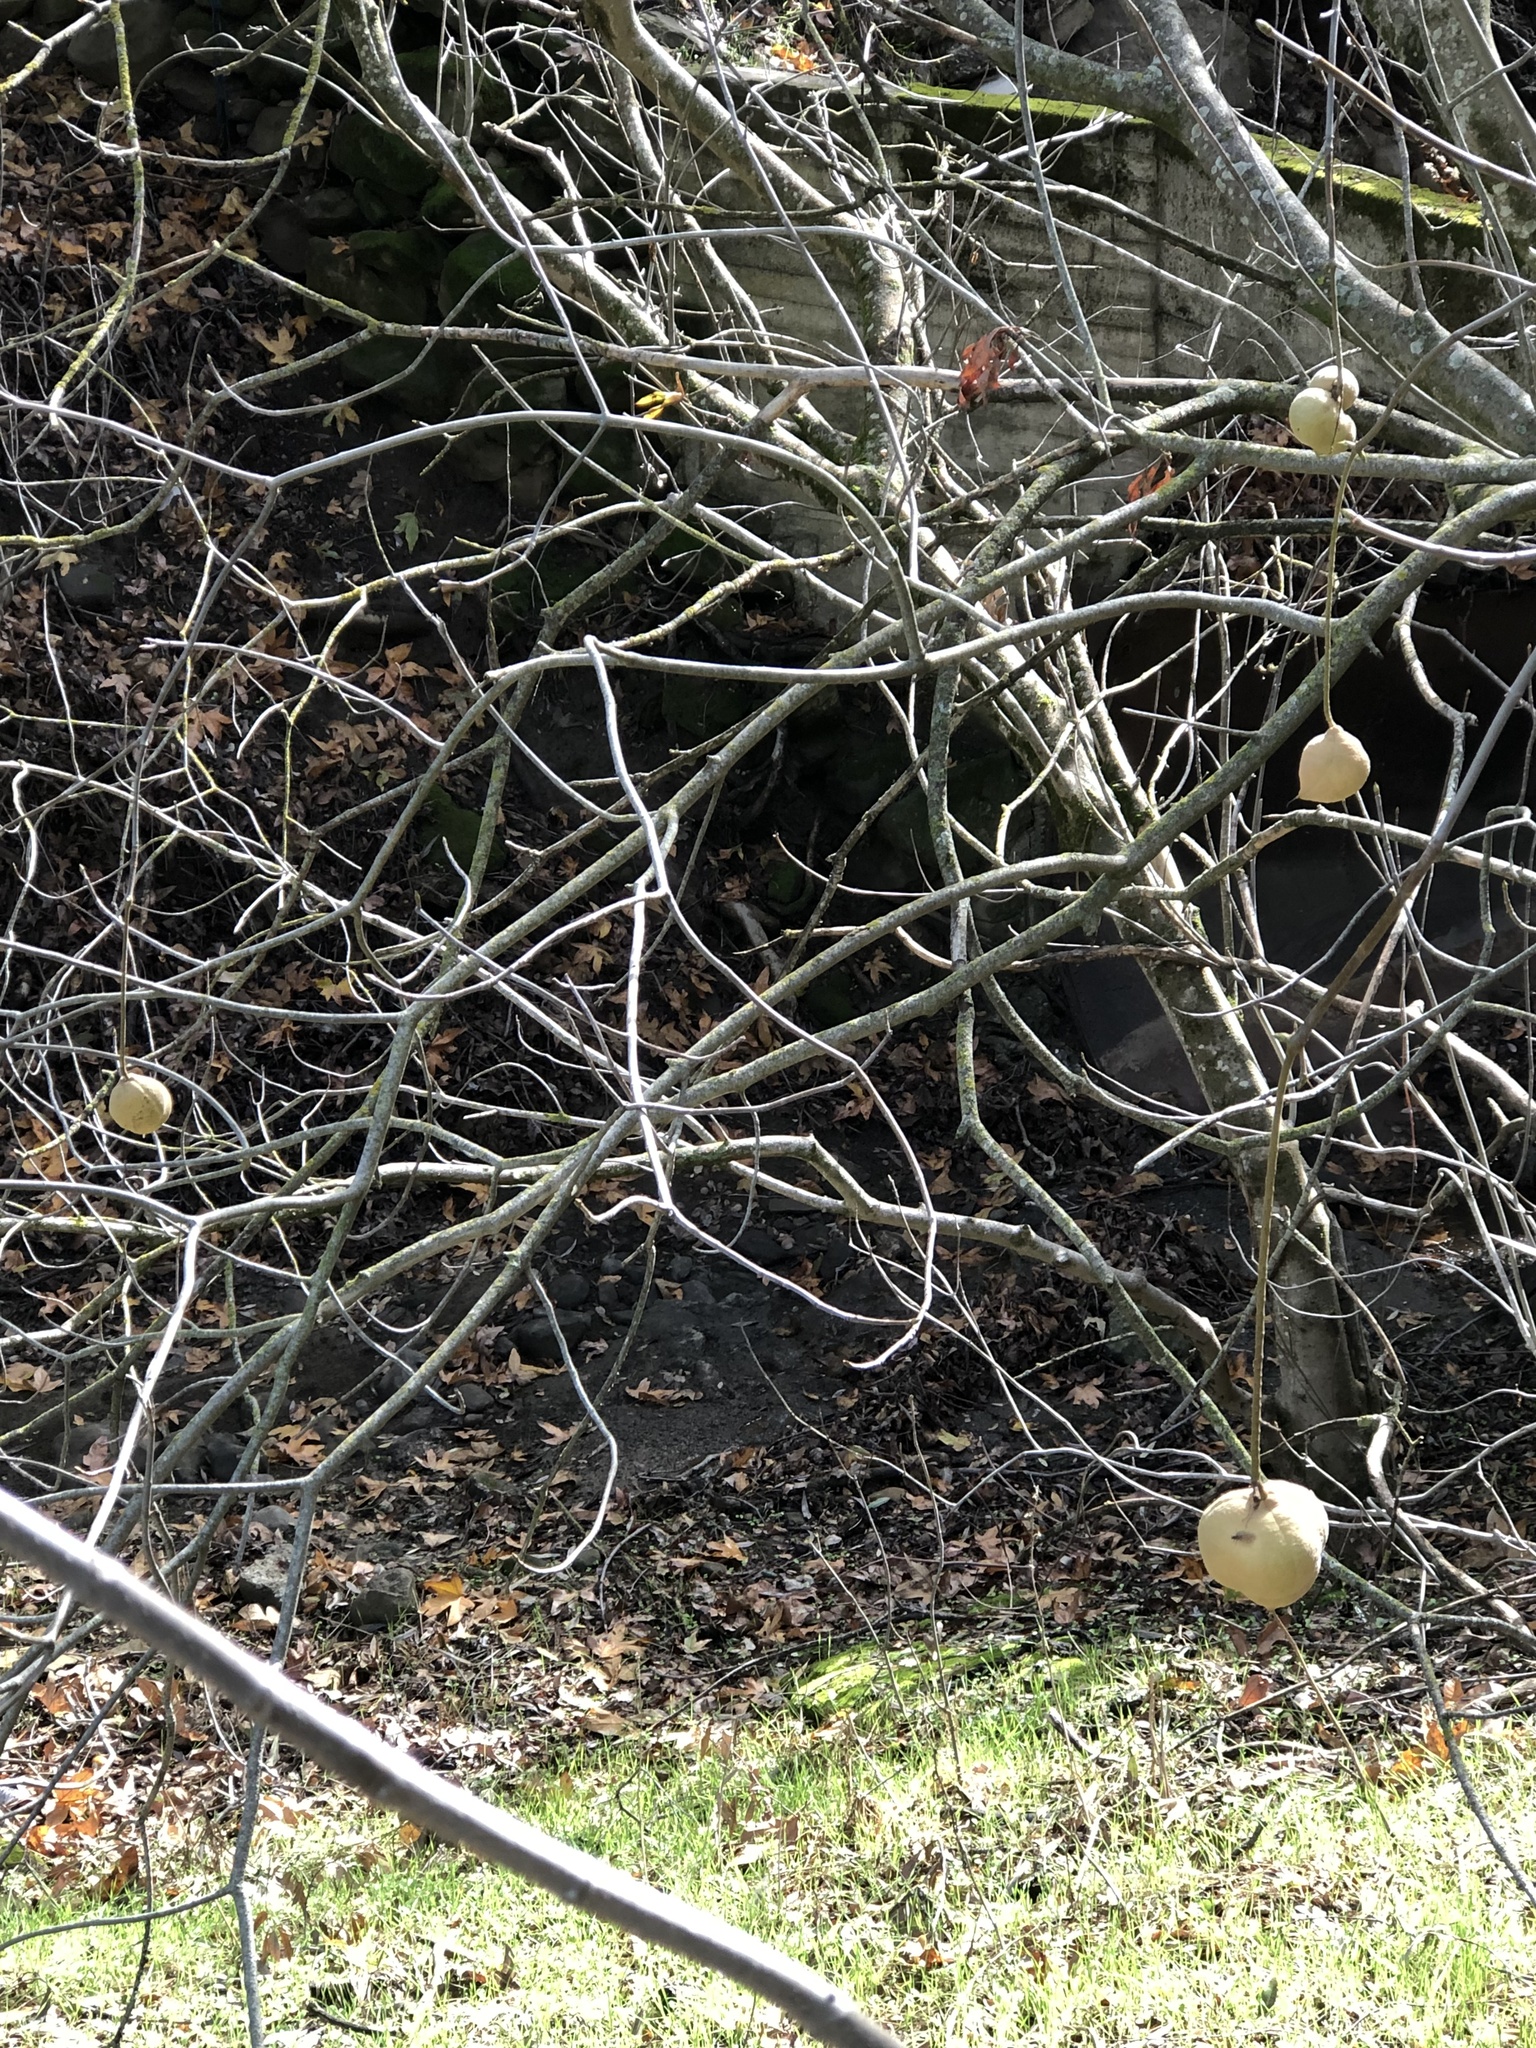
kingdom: Plantae
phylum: Tracheophyta
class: Magnoliopsida
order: Sapindales
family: Sapindaceae
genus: Aesculus
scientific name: Aesculus californica
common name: California buckeye
